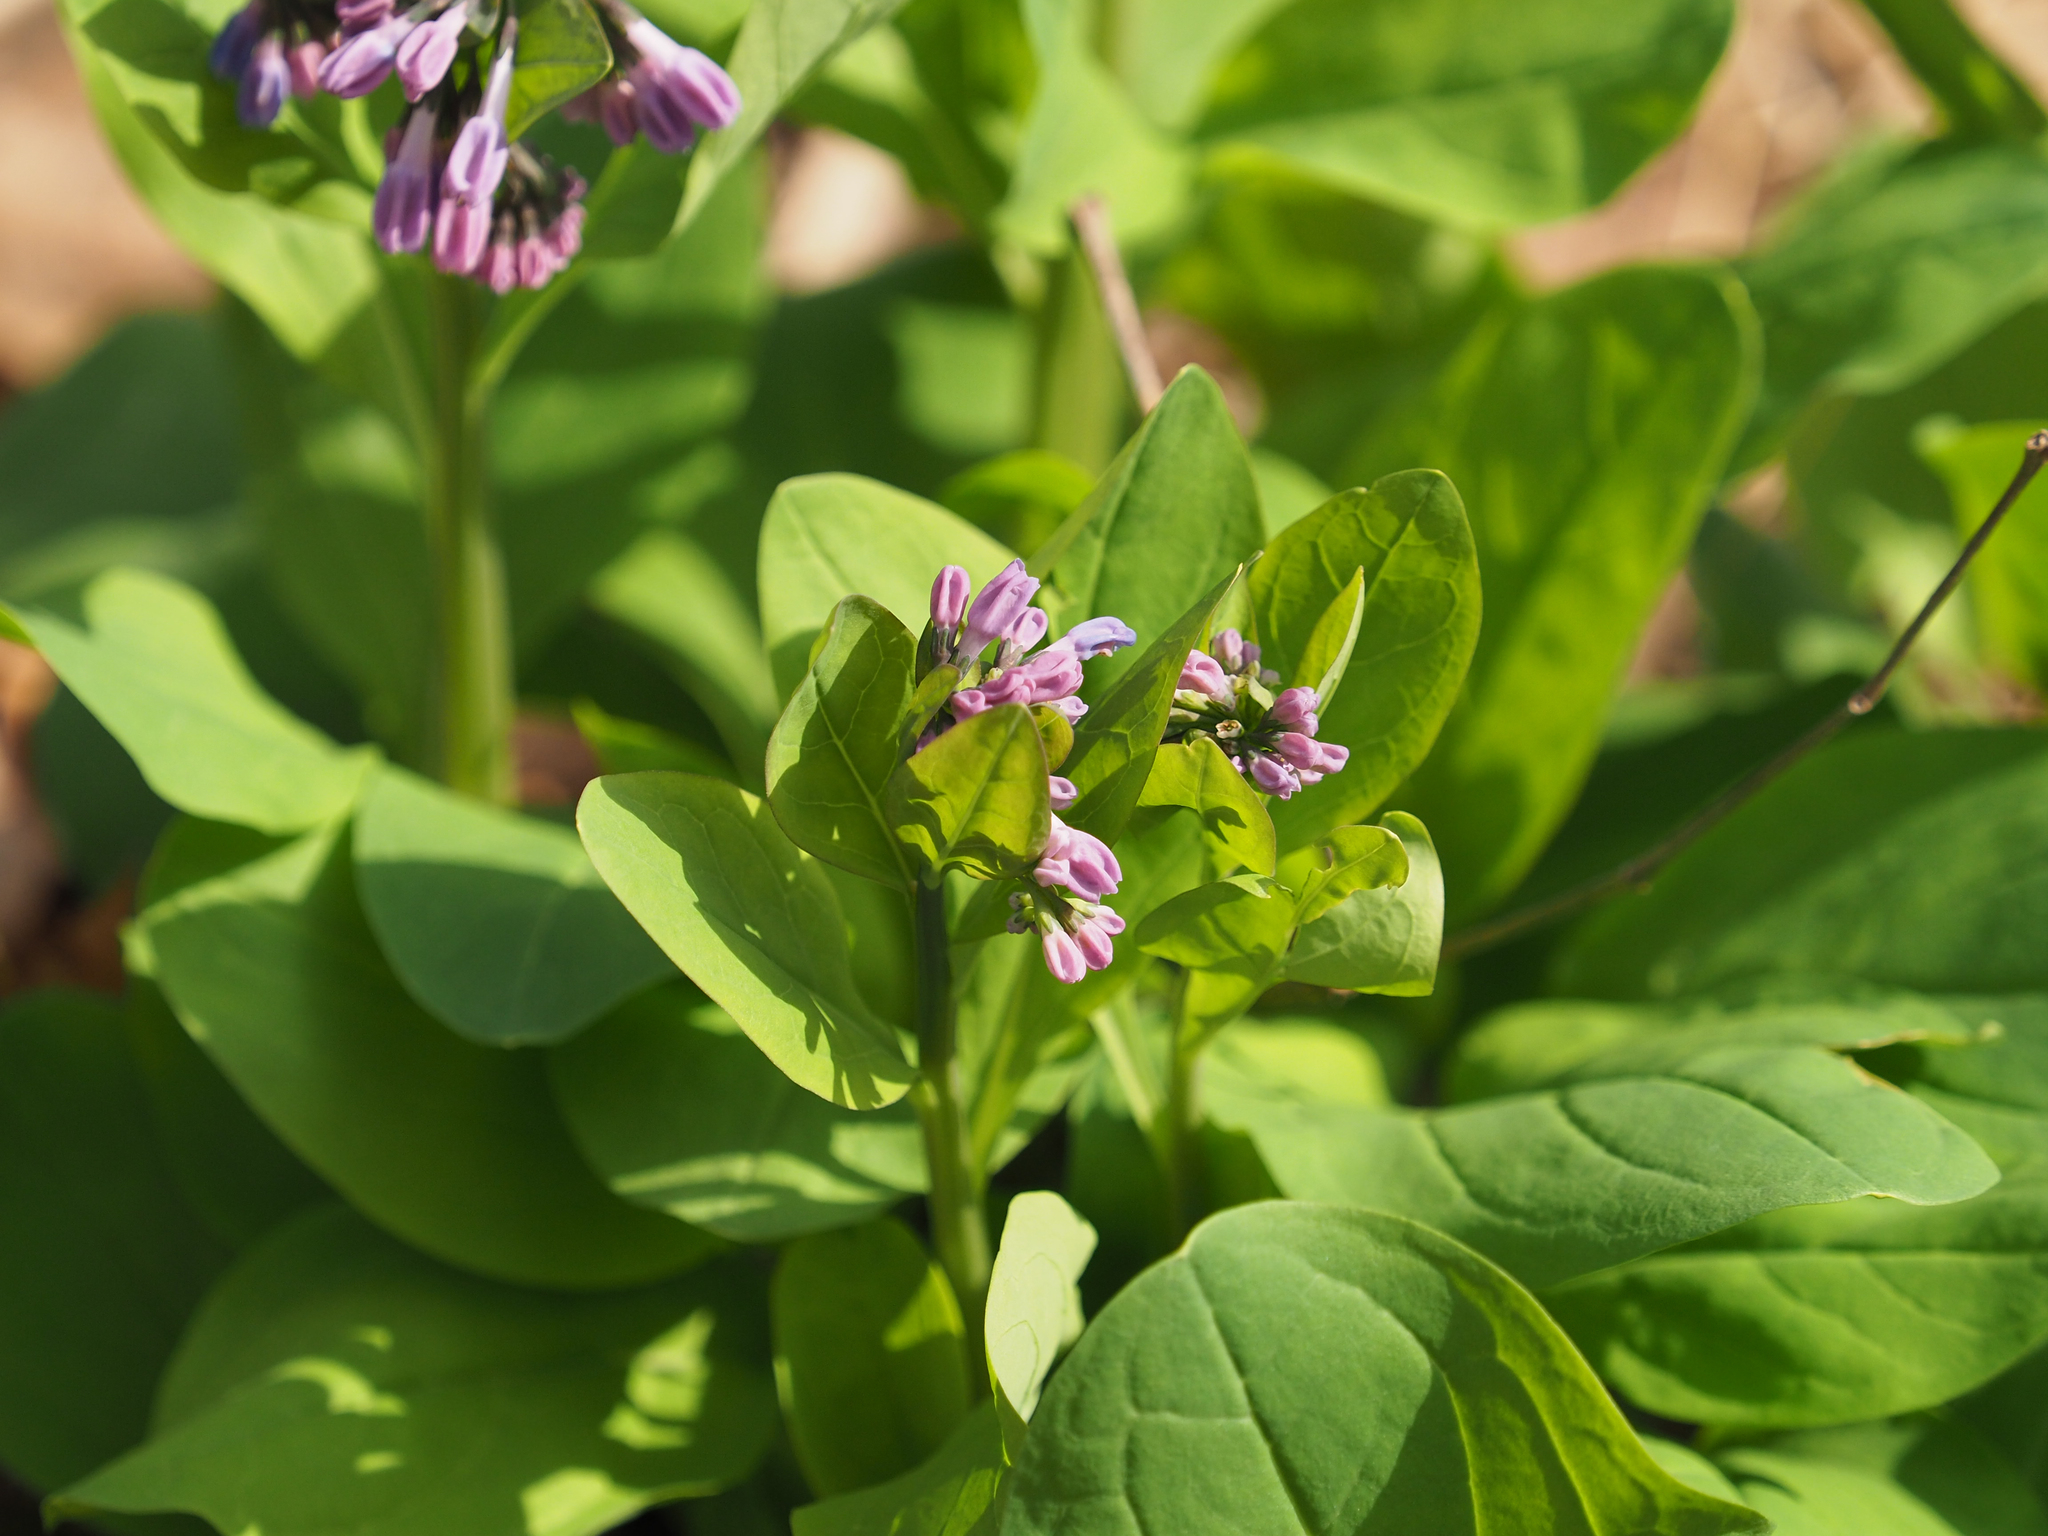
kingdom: Plantae
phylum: Tracheophyta
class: Magnoliopsida
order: Boraginales
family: Boraginaceae
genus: Mertensia
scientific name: Mertensia virginica
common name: Virginia bluebells
